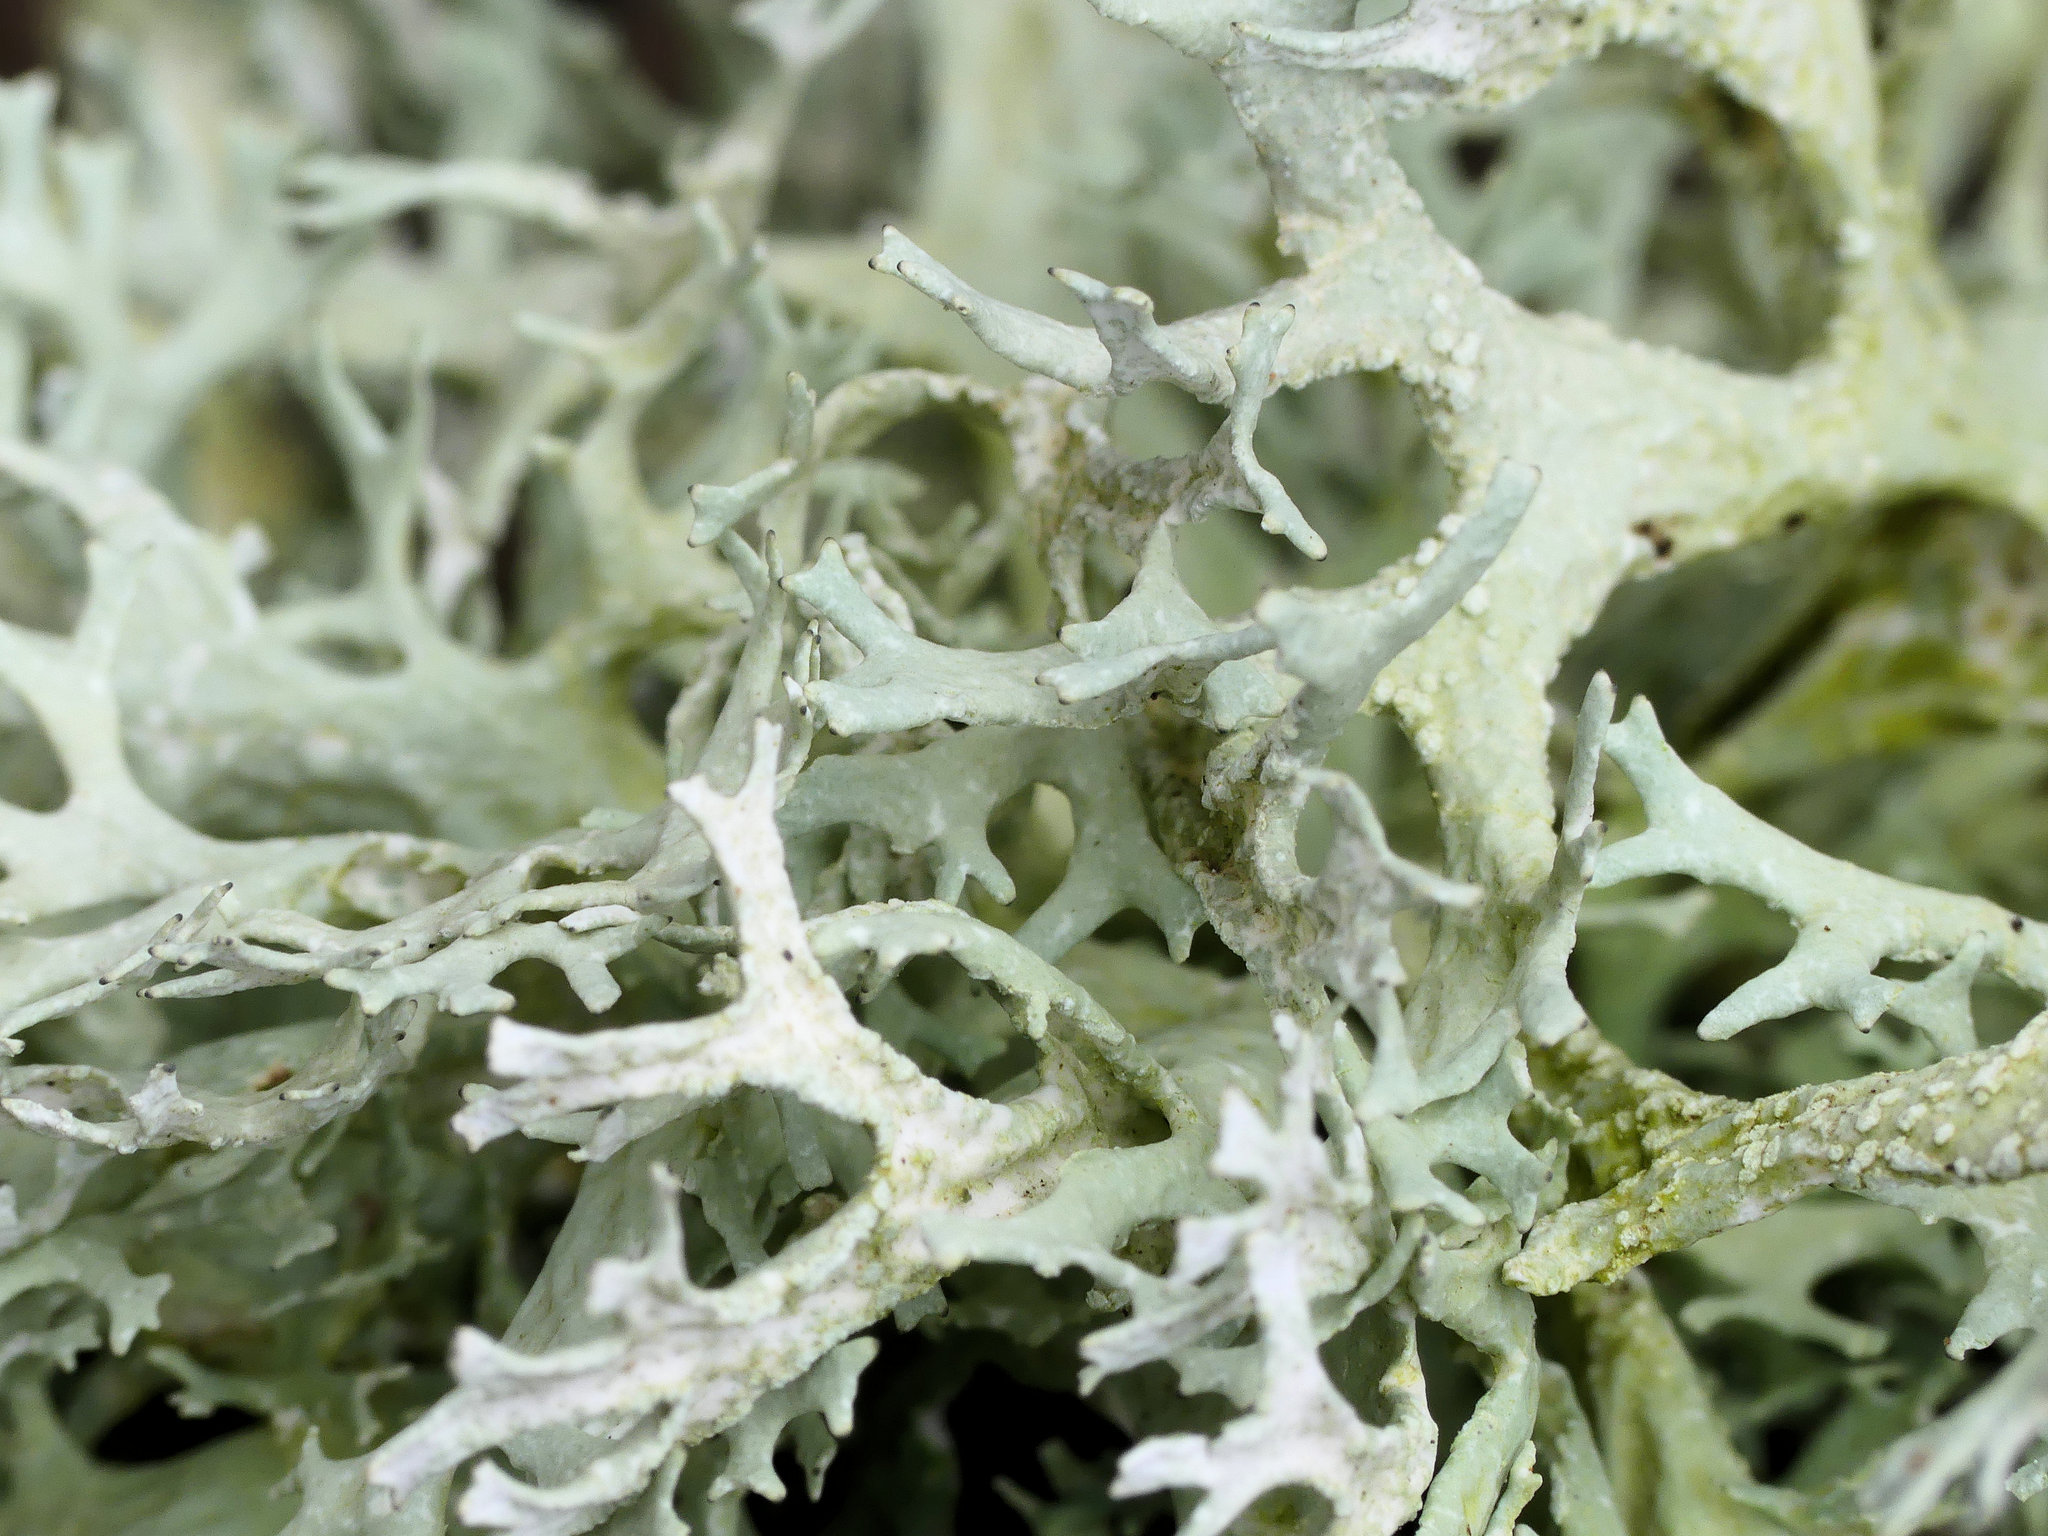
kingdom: Fungi
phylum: Ascomycota
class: Lecanoromycetes
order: Lecanorales
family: Parmeliaceae
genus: Evernia
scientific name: Evernia prunastri
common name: Oak moss
